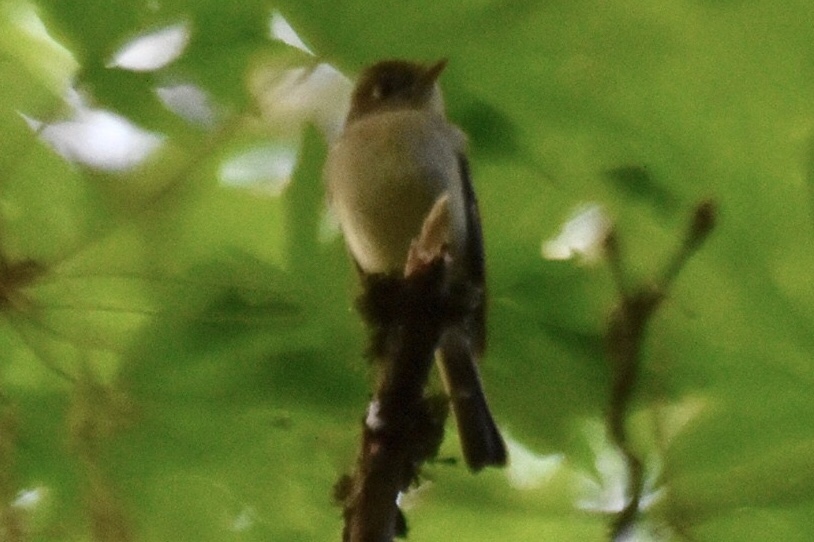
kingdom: Animalia
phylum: Chordata
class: Aves
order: Passeriformes
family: Tyrannidae
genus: Empidonax
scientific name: Empidonax difficilis
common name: Pacific-slope flycatcher
